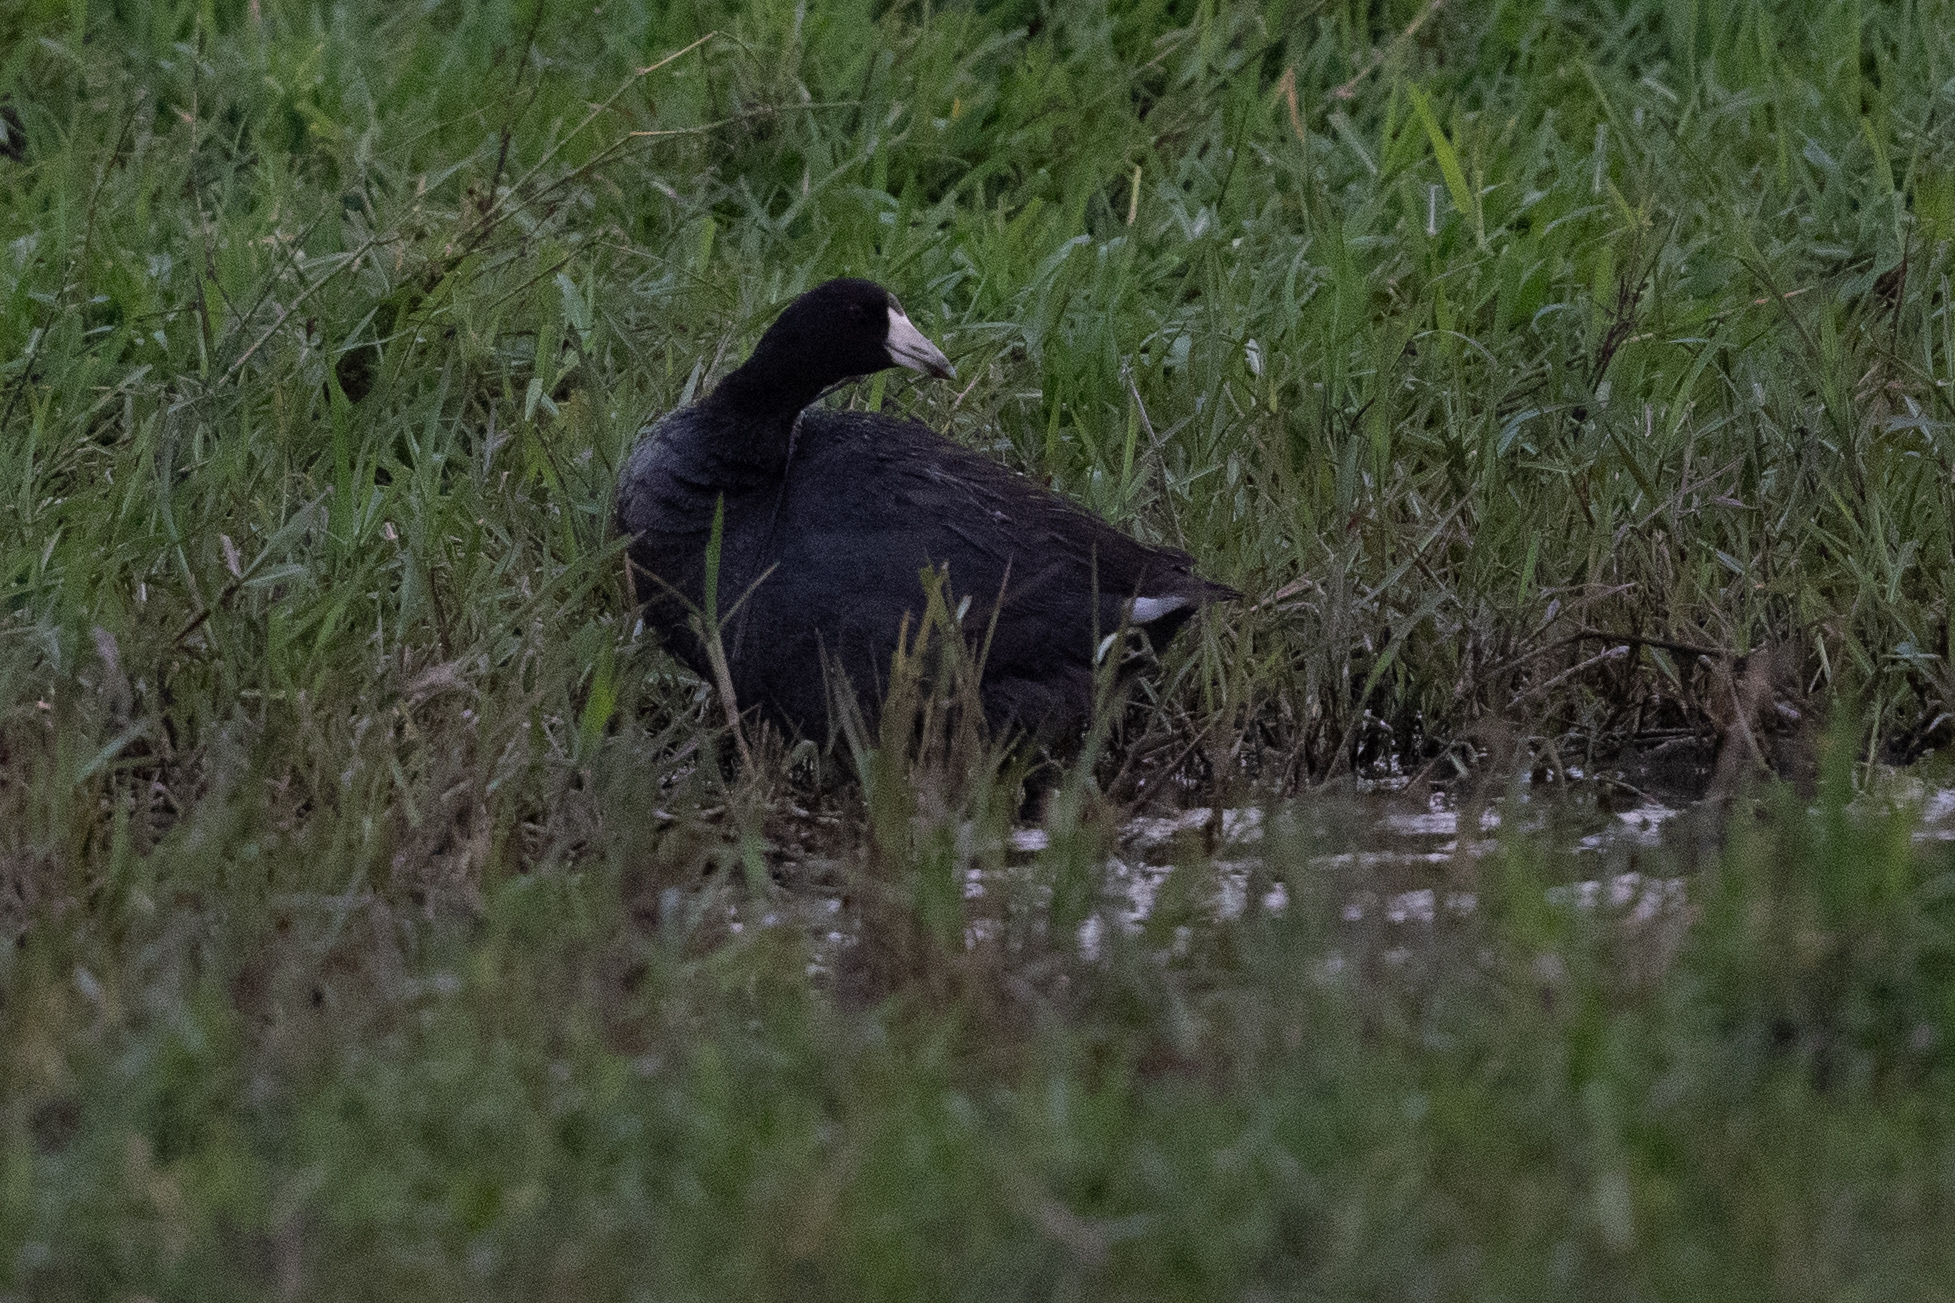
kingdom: Animalia
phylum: Chordata
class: Aves
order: Gruiformes
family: Rallidae
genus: Fulica
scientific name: Fulica americana
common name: American coot
